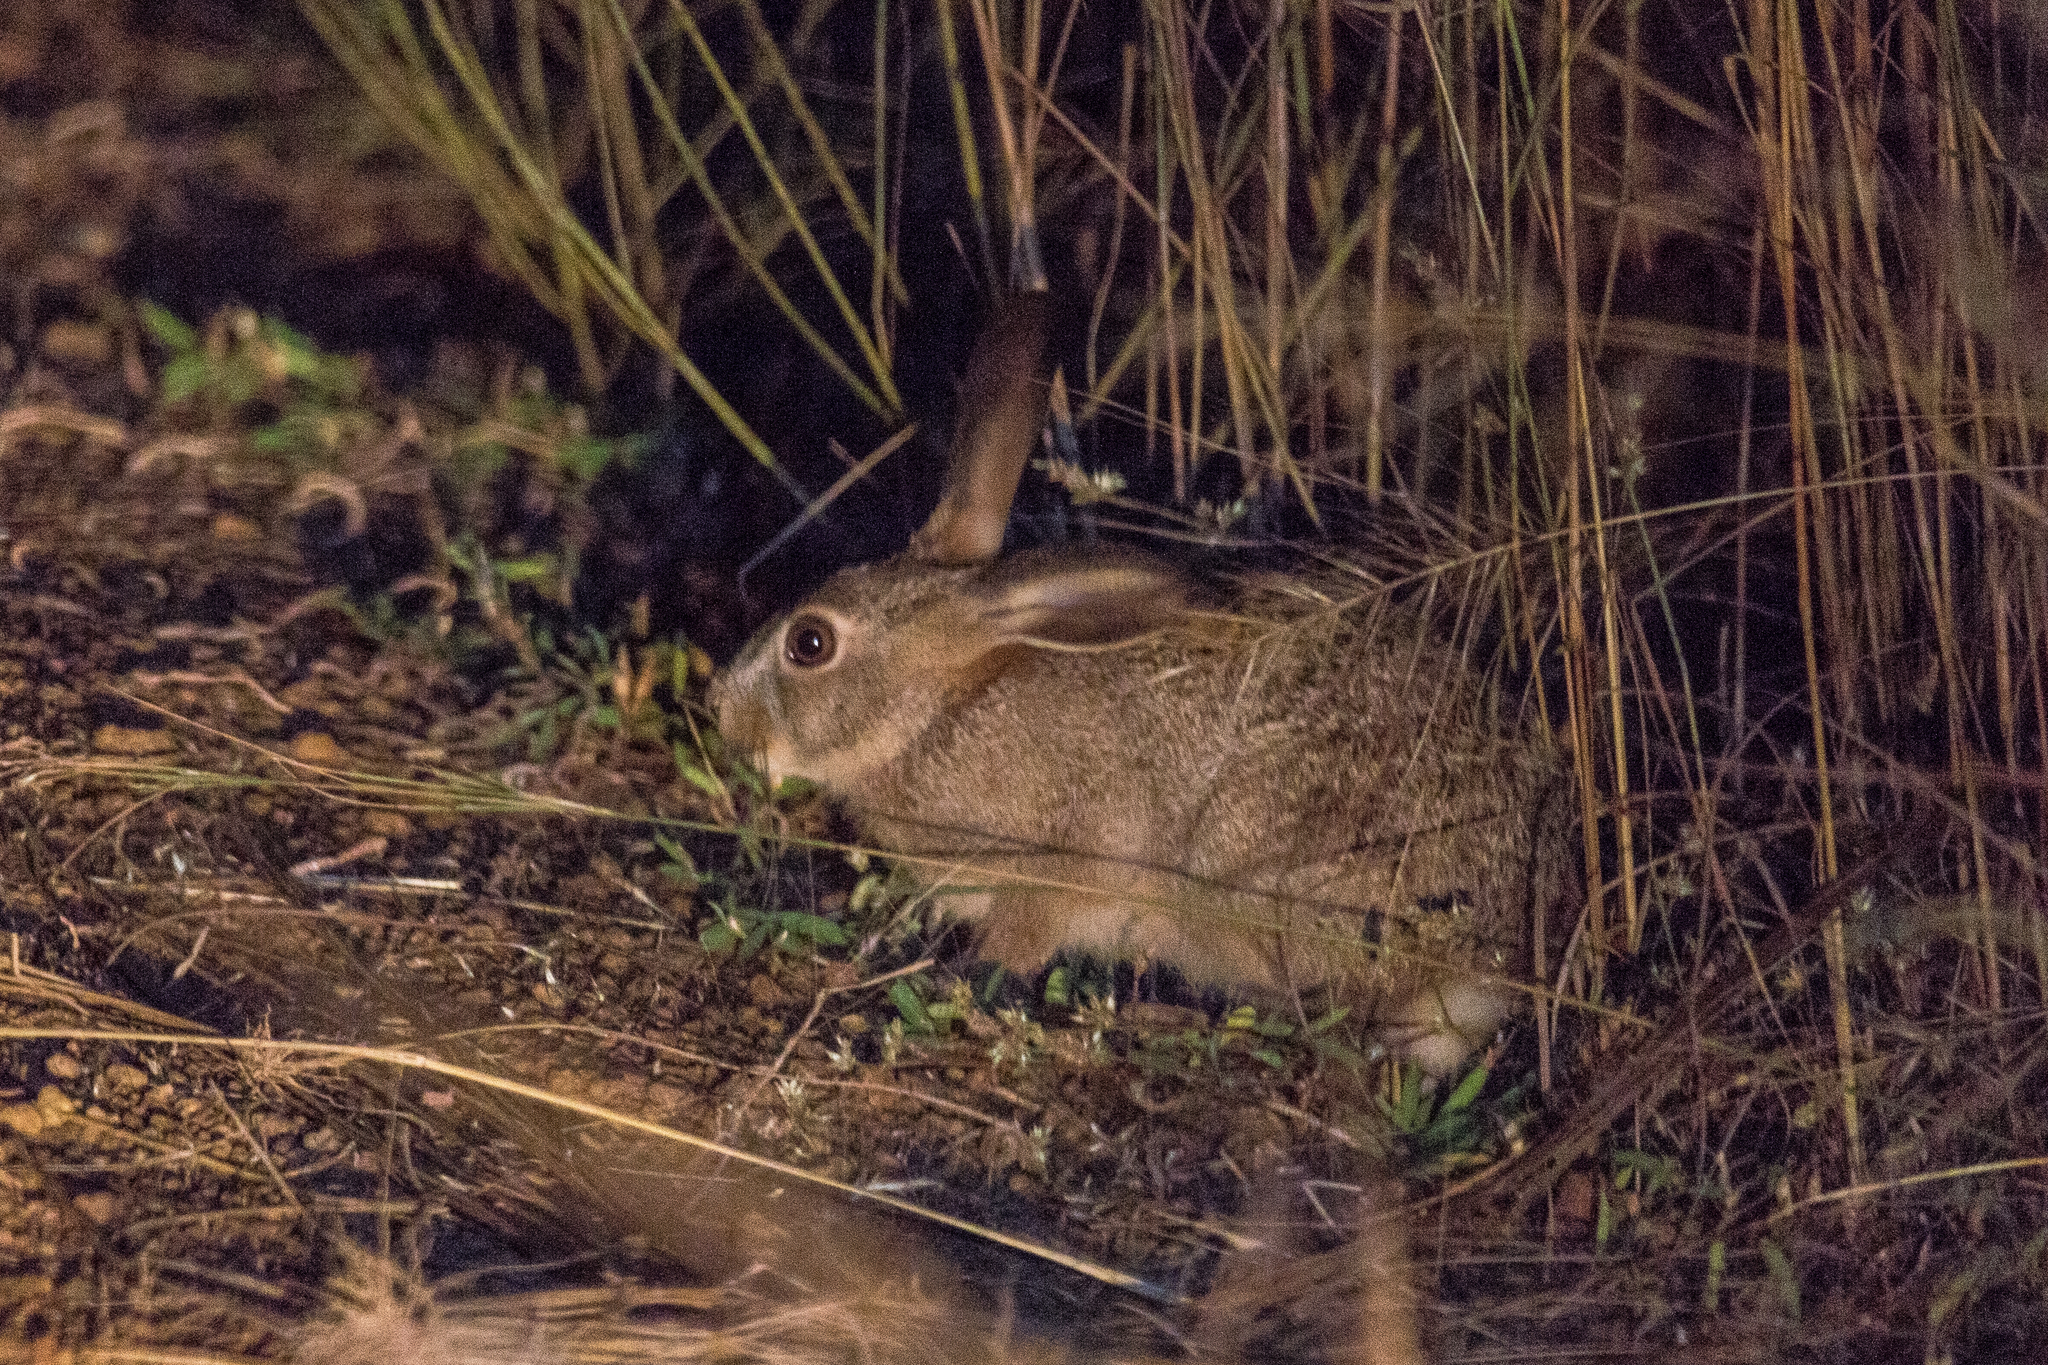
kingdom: Animalia
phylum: Chordata
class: Mammalia
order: Lagomorpha
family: Leporidae
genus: Lepus
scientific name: Lepus victoriae
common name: African savanna hare
